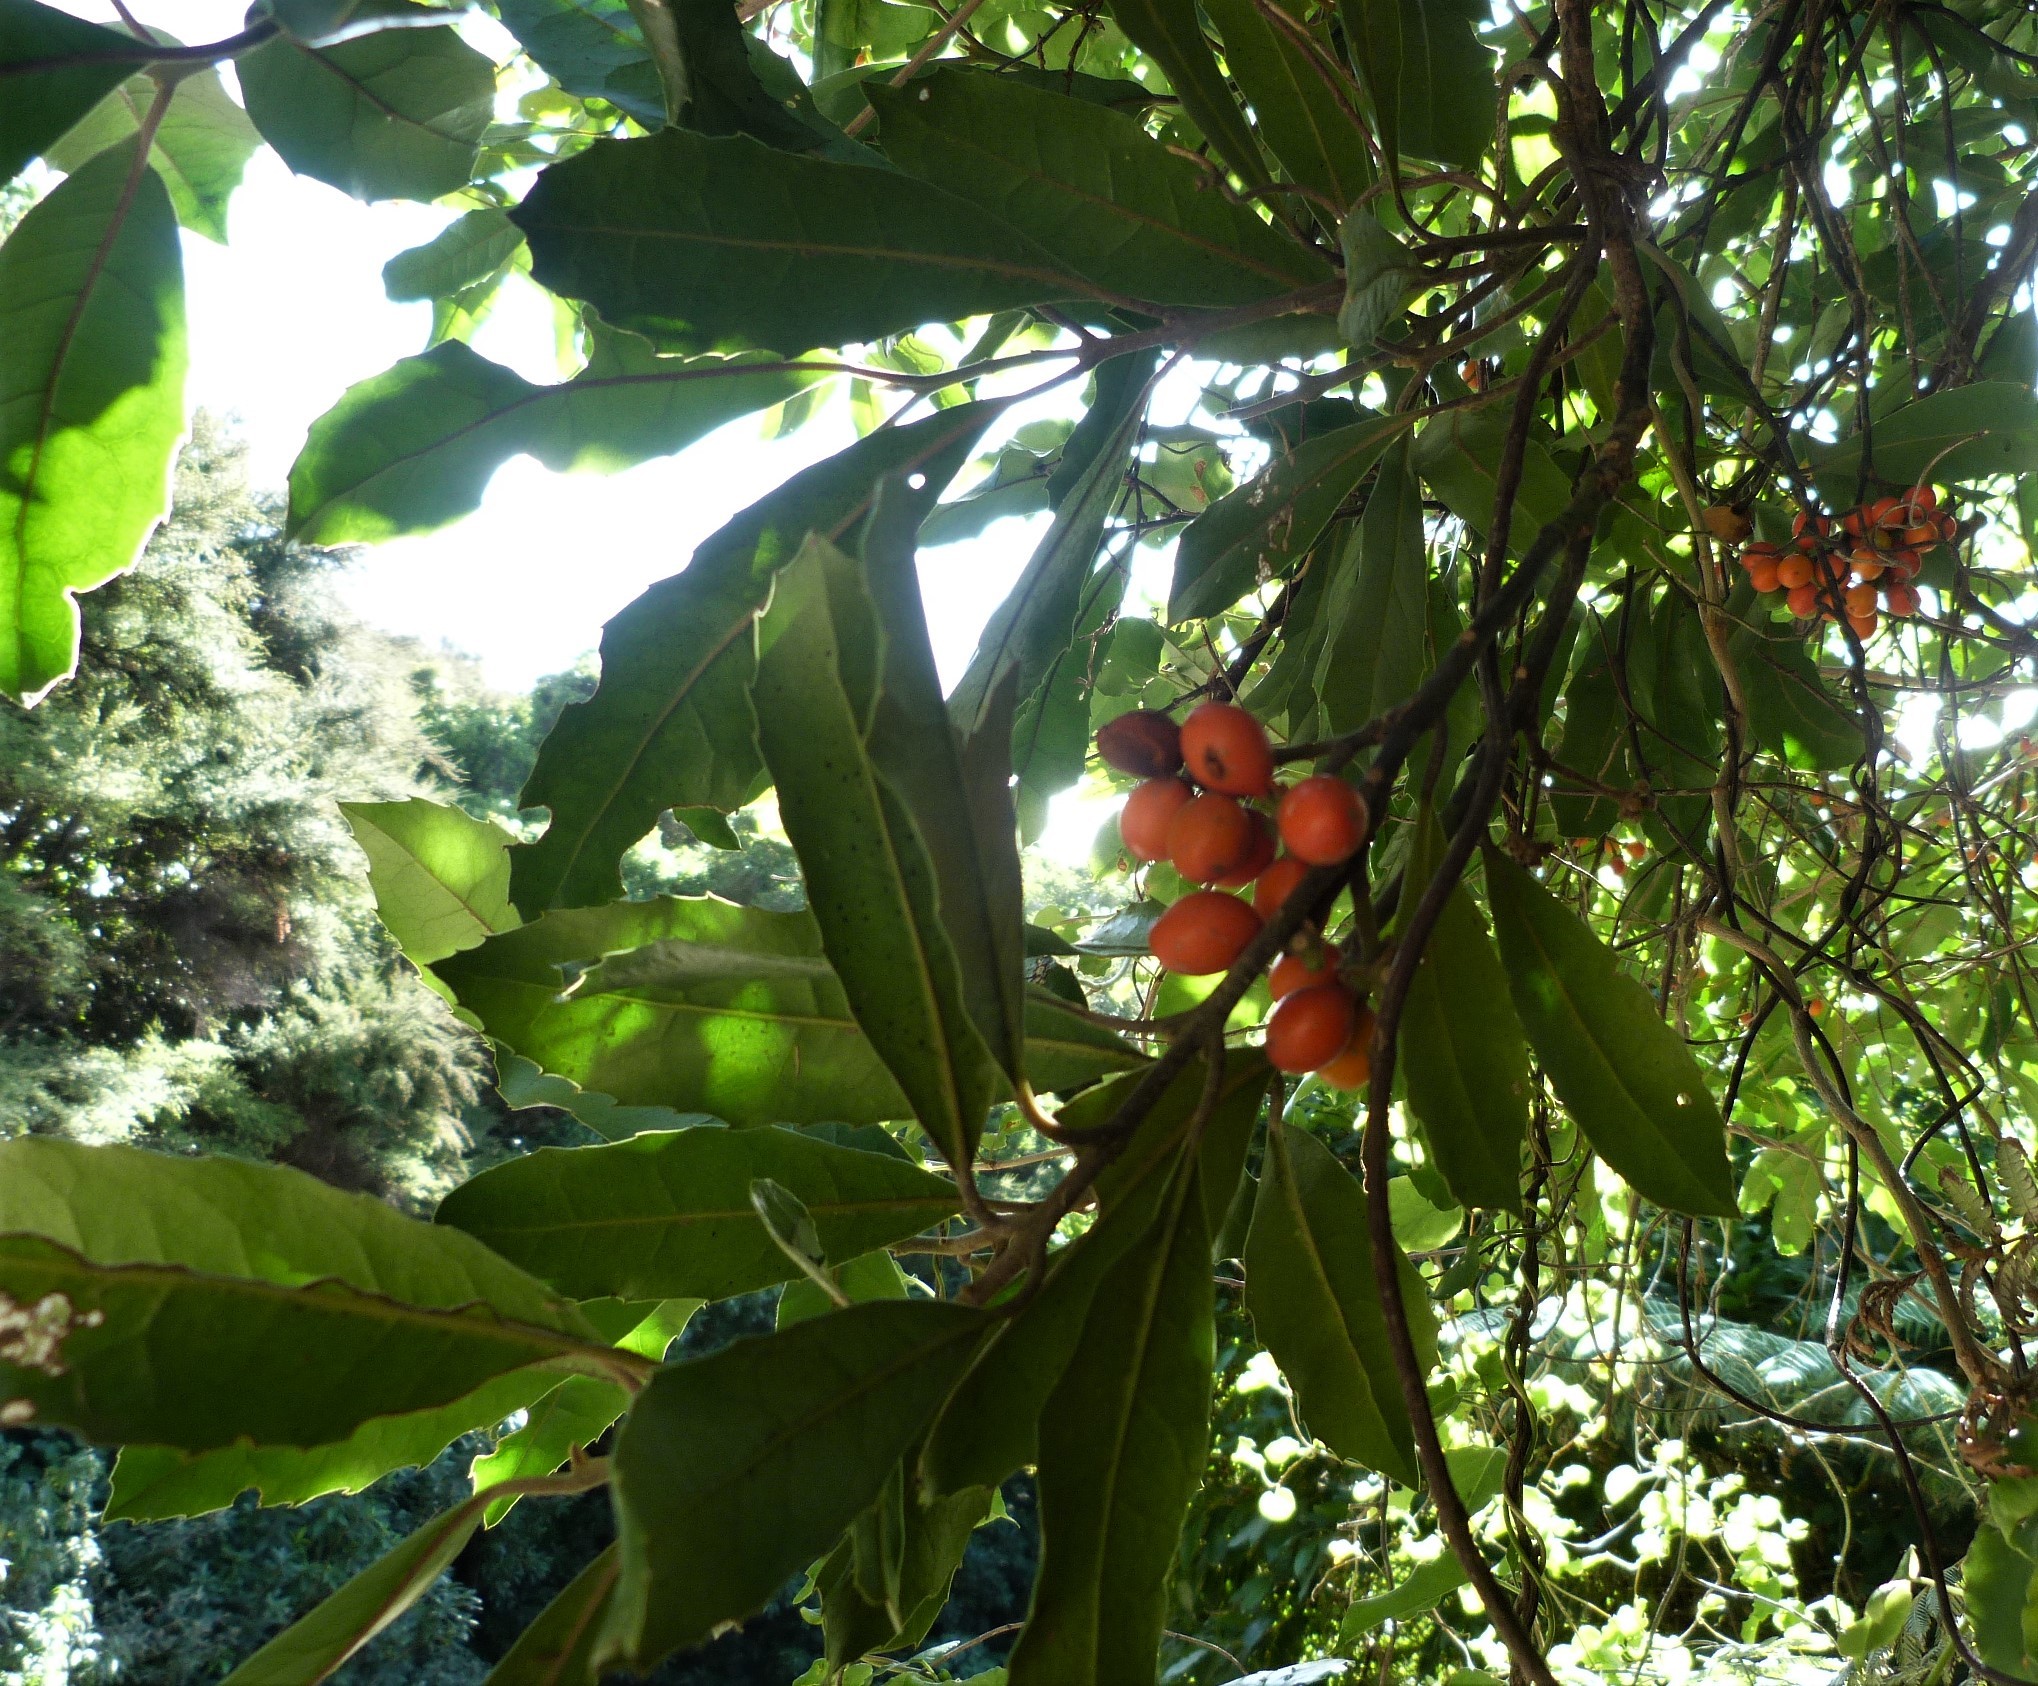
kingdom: Plantae
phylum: Tracheophyta
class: Magnoliopsida
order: Laurales
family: Monimiaceae
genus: Hedycarya
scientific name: Hedycarya arborea
